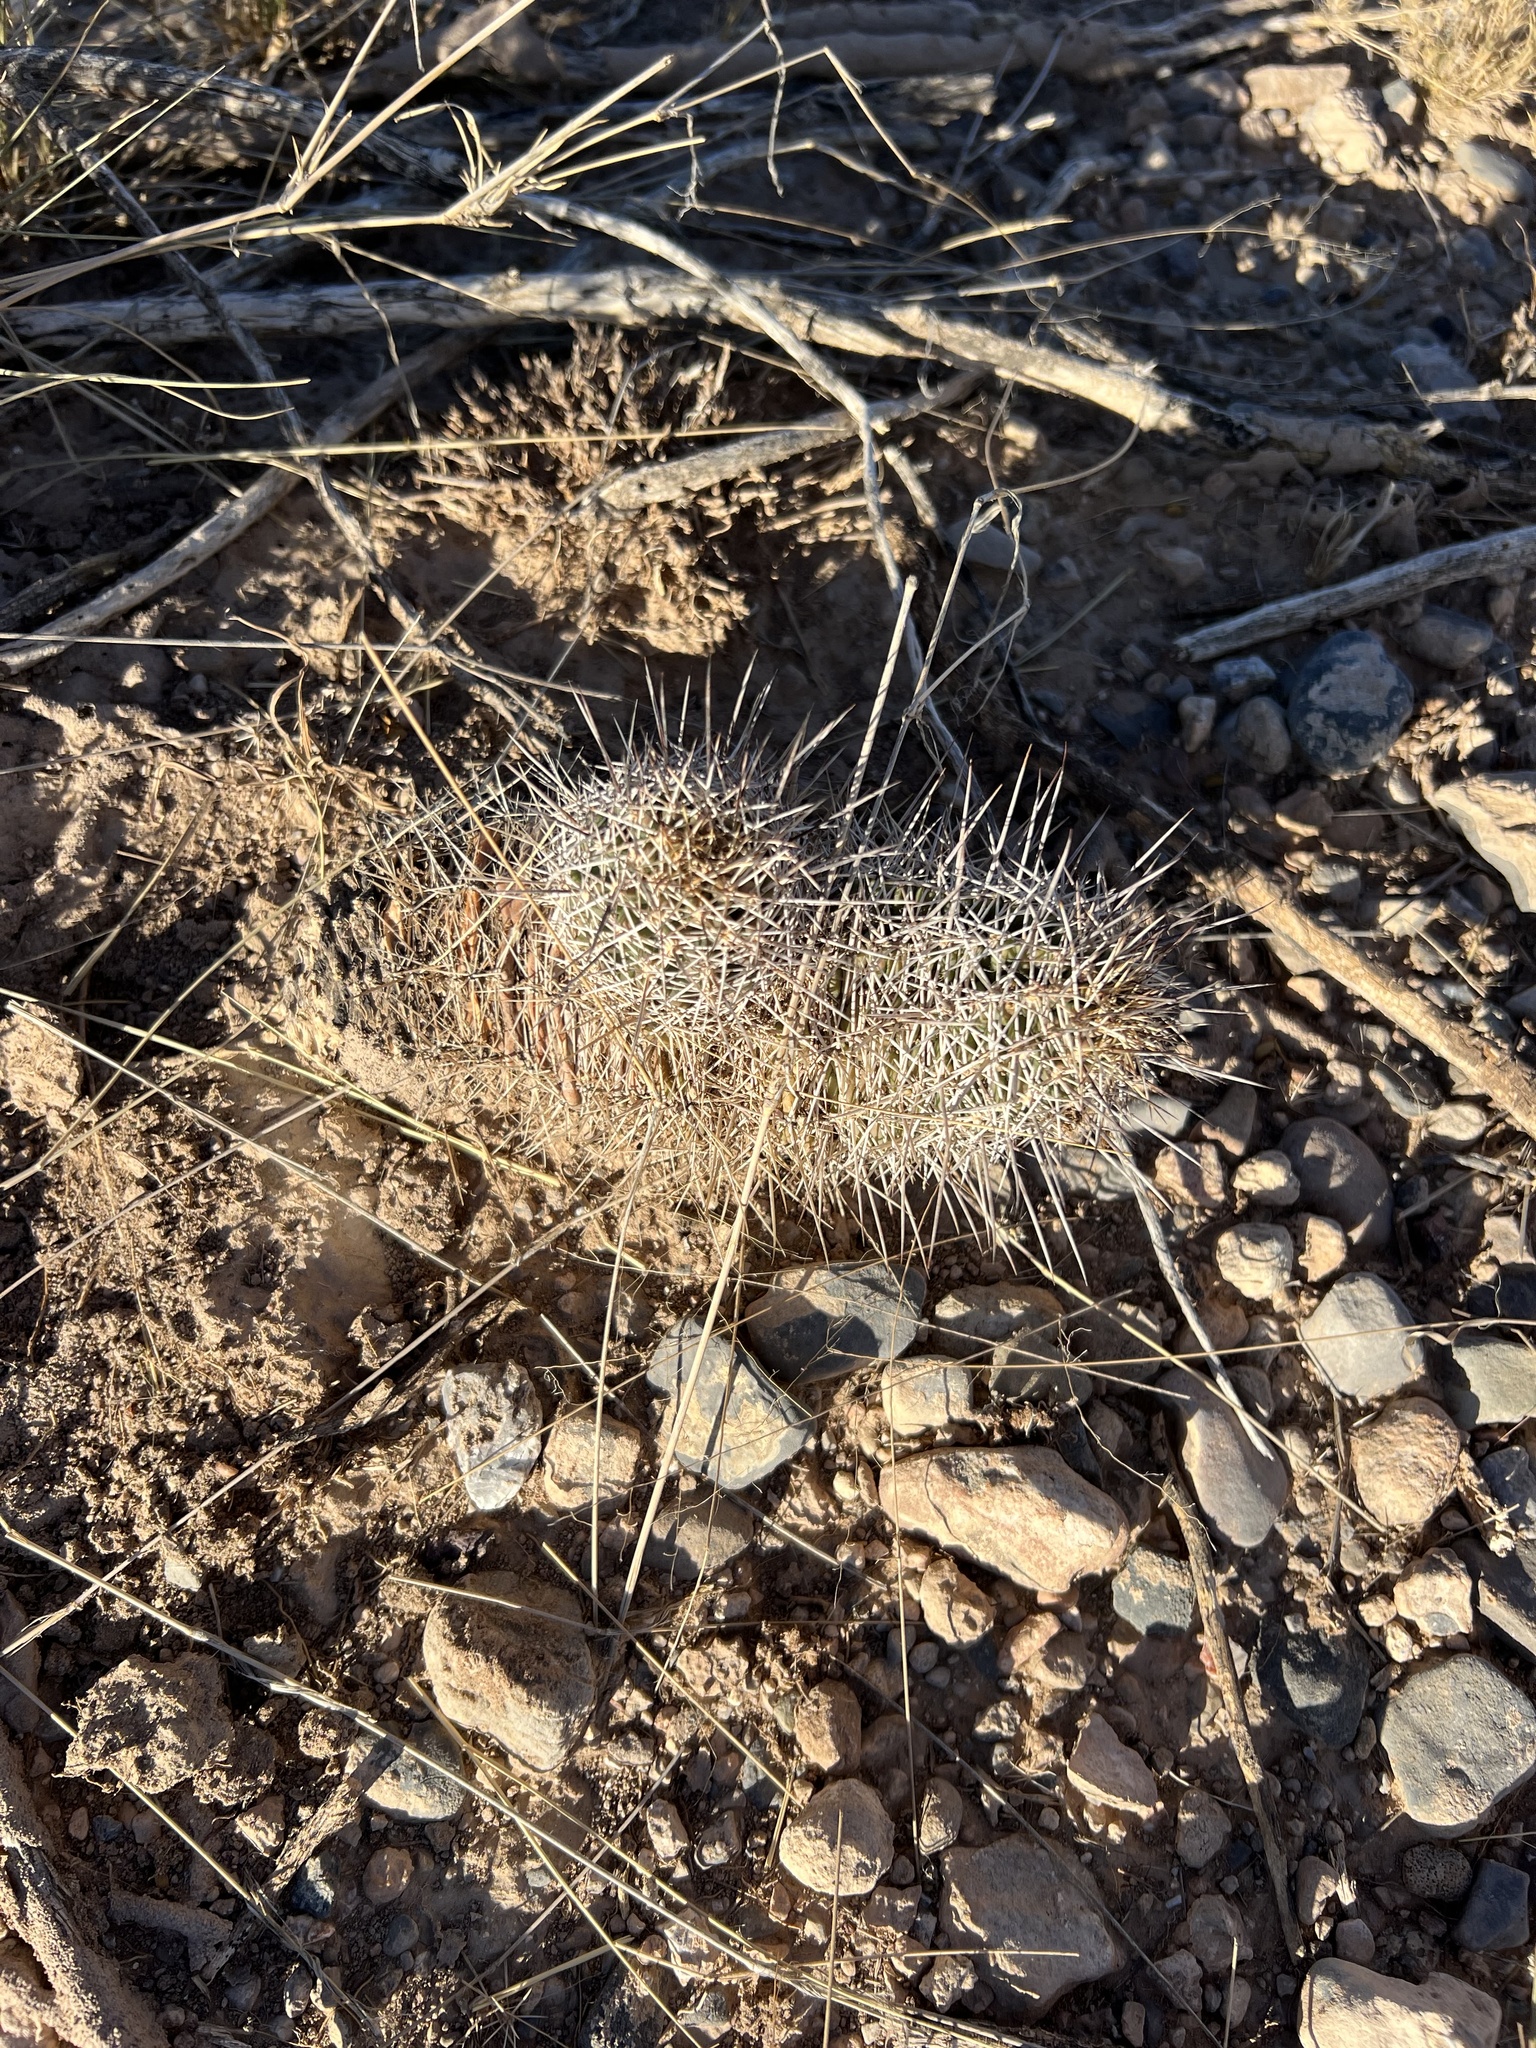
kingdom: Plantae
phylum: Tracheophyta
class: Magnoliopsida
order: Caryophyllales
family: Cactaceae
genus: Echinocereus
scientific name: Echinocereus fendleri
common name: Fendler's hedgehog cactus
